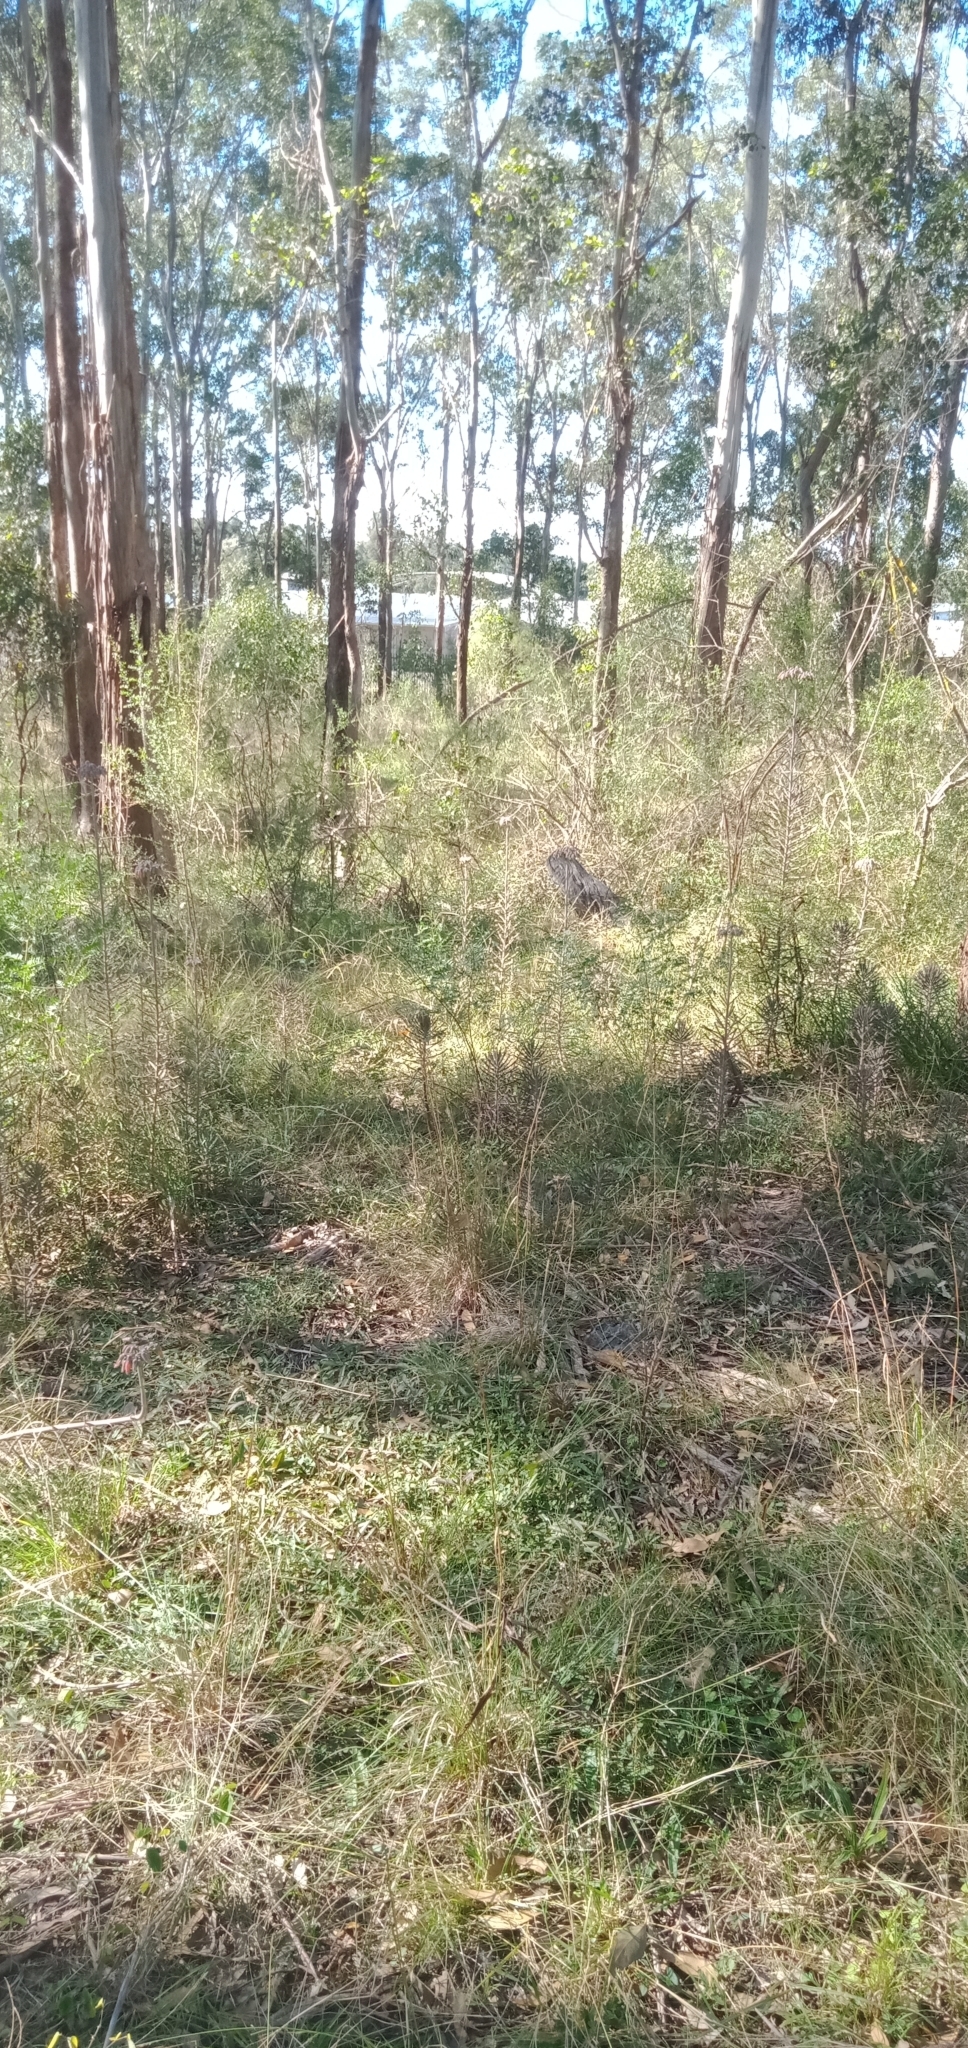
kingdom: Plantae
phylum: Tracheophyta
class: Magnoliopsida
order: Saxifragales
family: Crassulaceae
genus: Kalanchoe
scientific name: Kalanchoe delagoensis
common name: Chandelier plant
